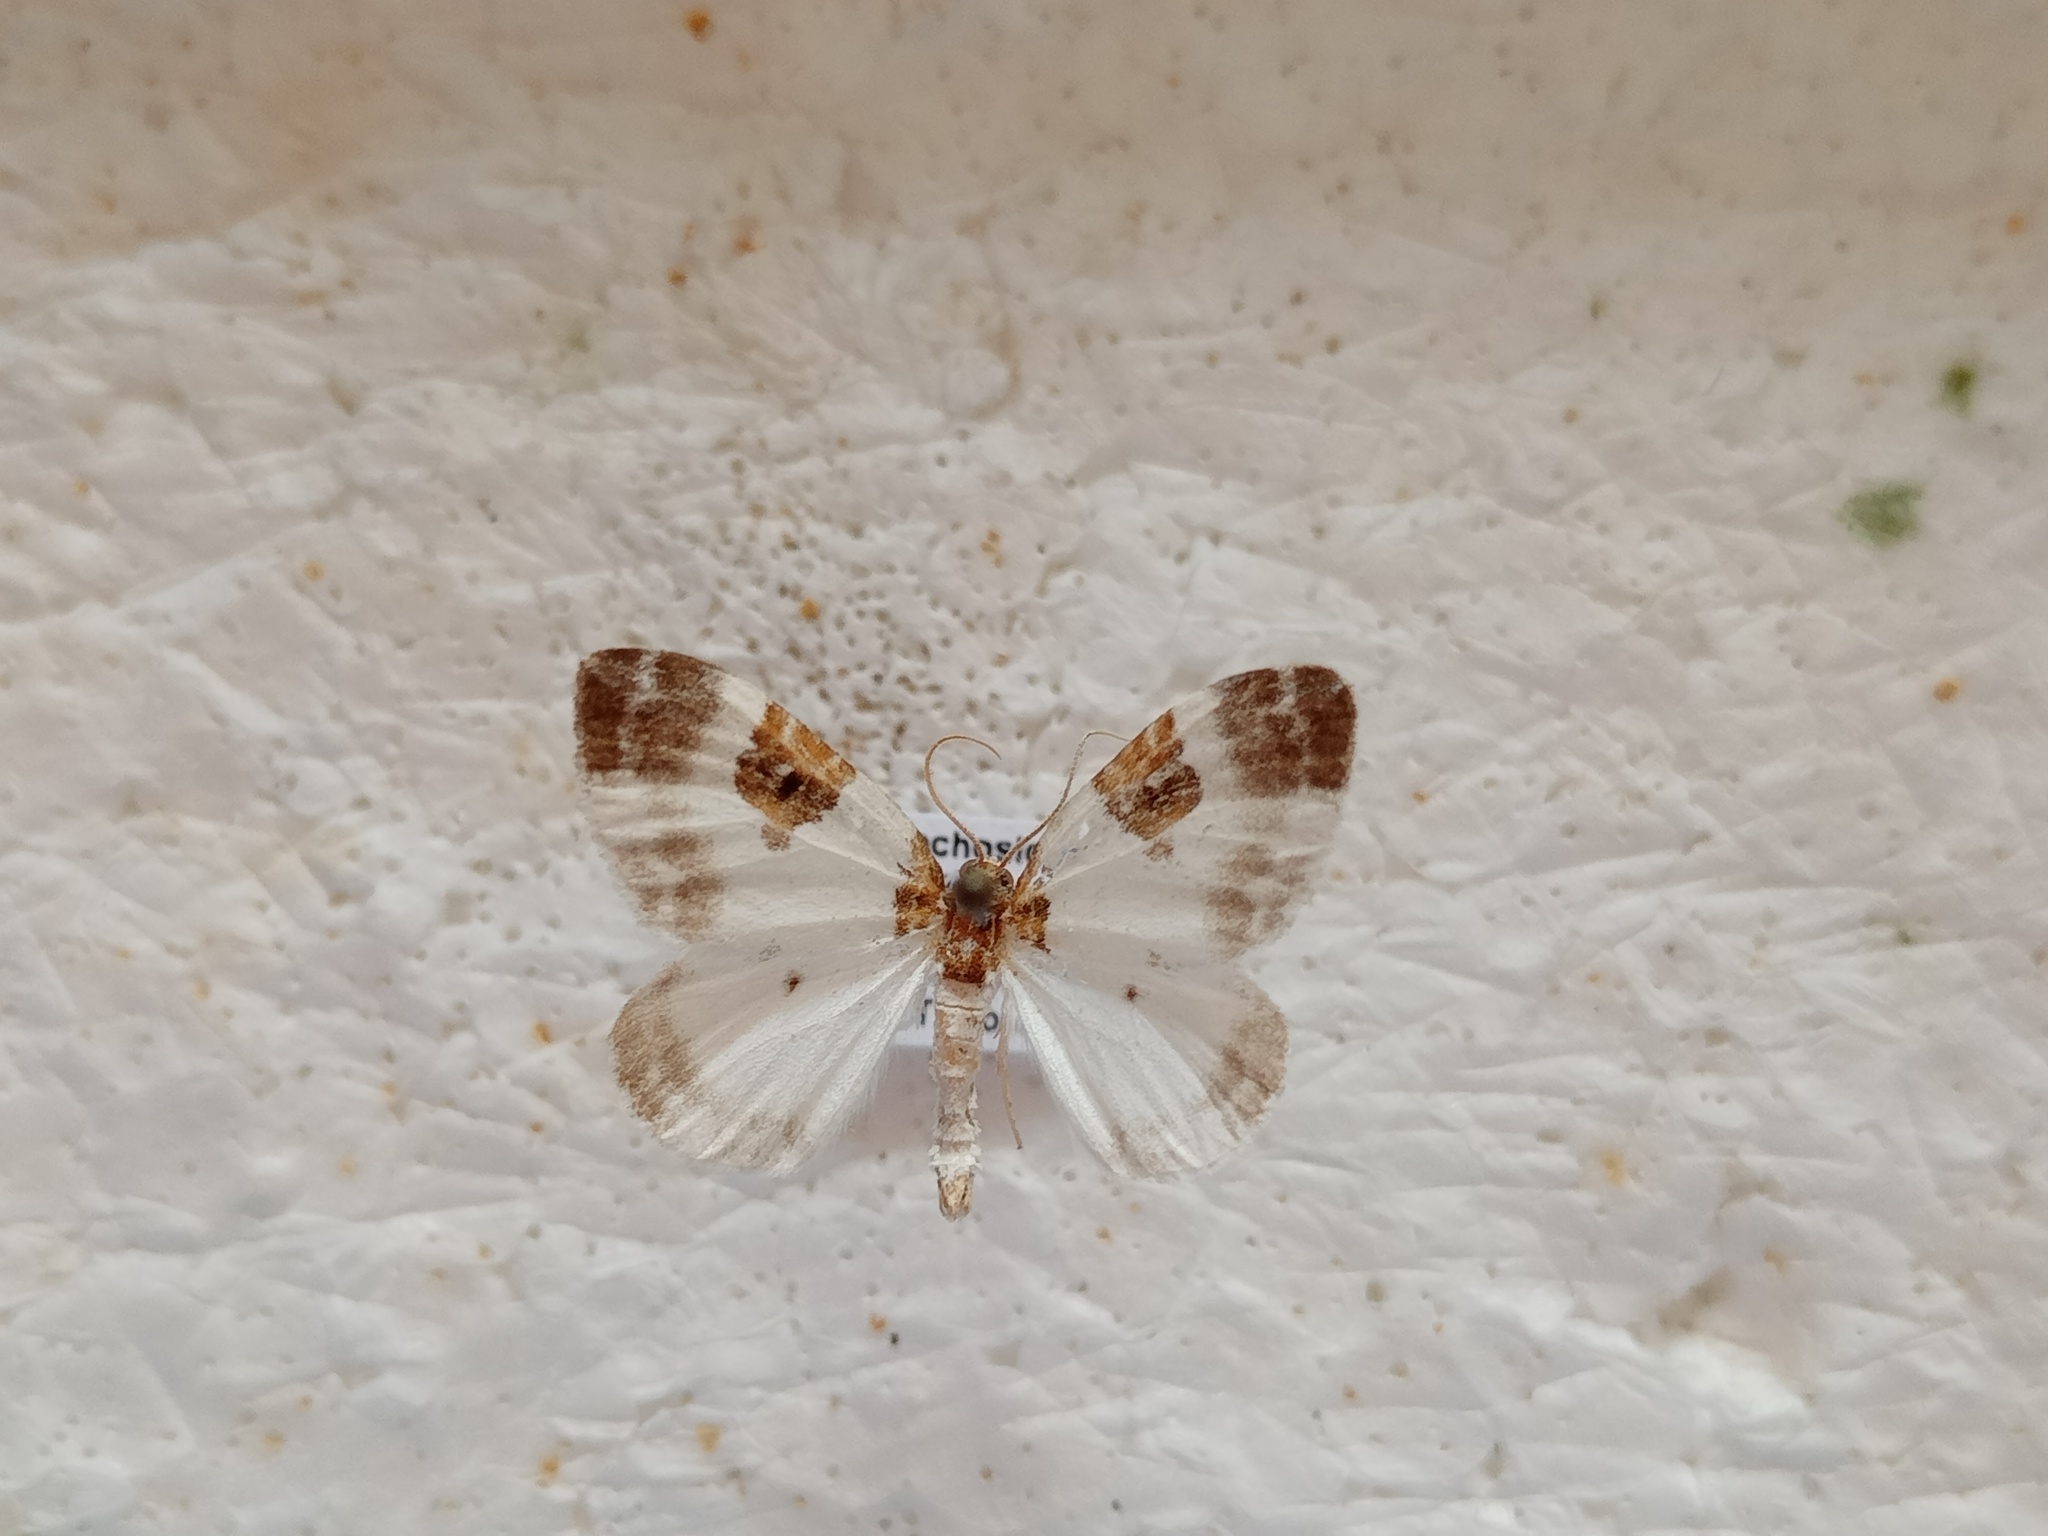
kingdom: Animalia
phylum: Arthropoda
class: Insecta
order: Lepidoptera
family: Geometridae
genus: Plemyria
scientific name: Plemyria rubiginata
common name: Blue-bordered carpet
